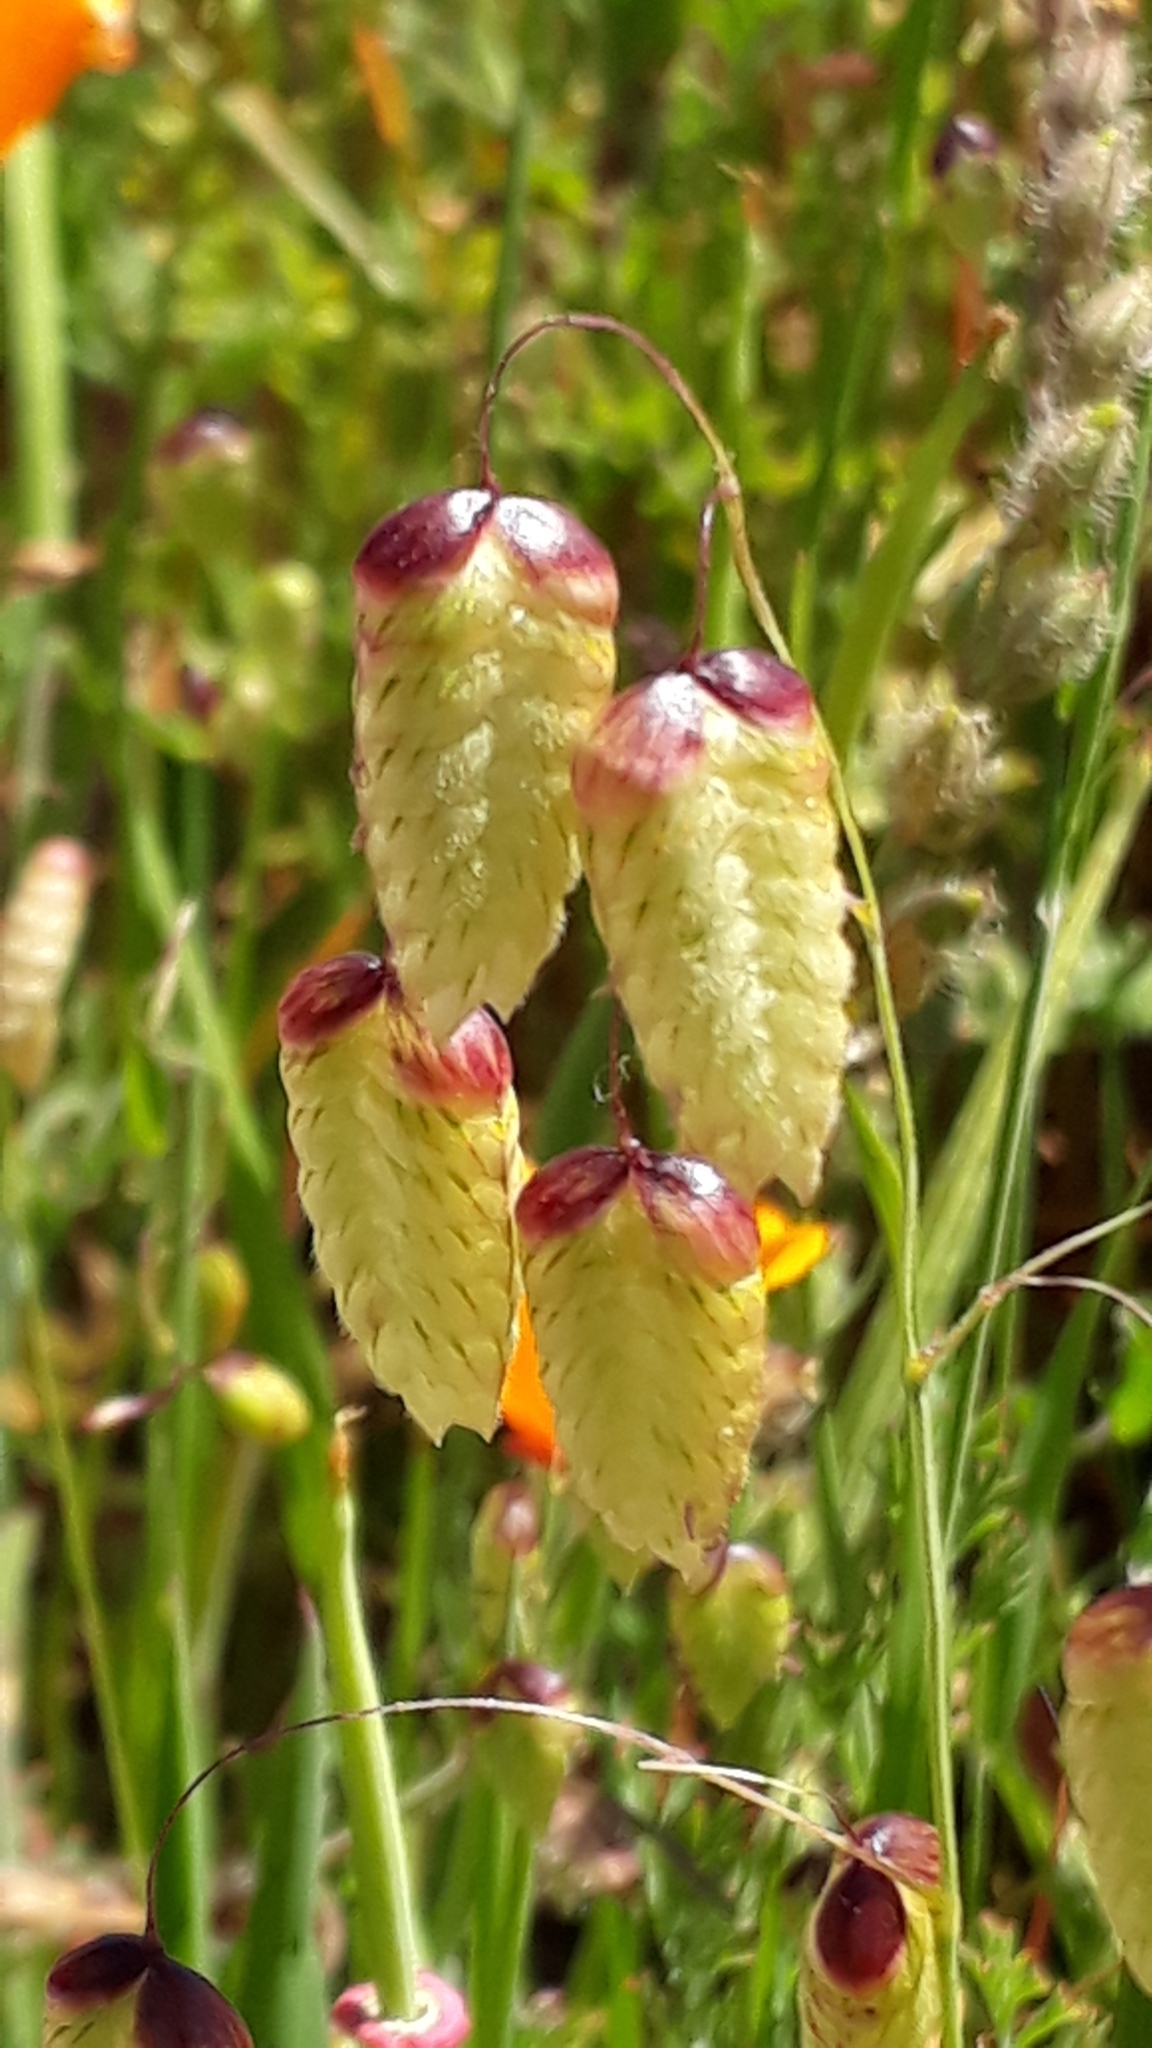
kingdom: Plantae
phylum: Tracheophyta
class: Liliopsida
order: Poales
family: Poaceae
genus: Briza
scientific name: Briza maxima
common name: Big quakinggrass
